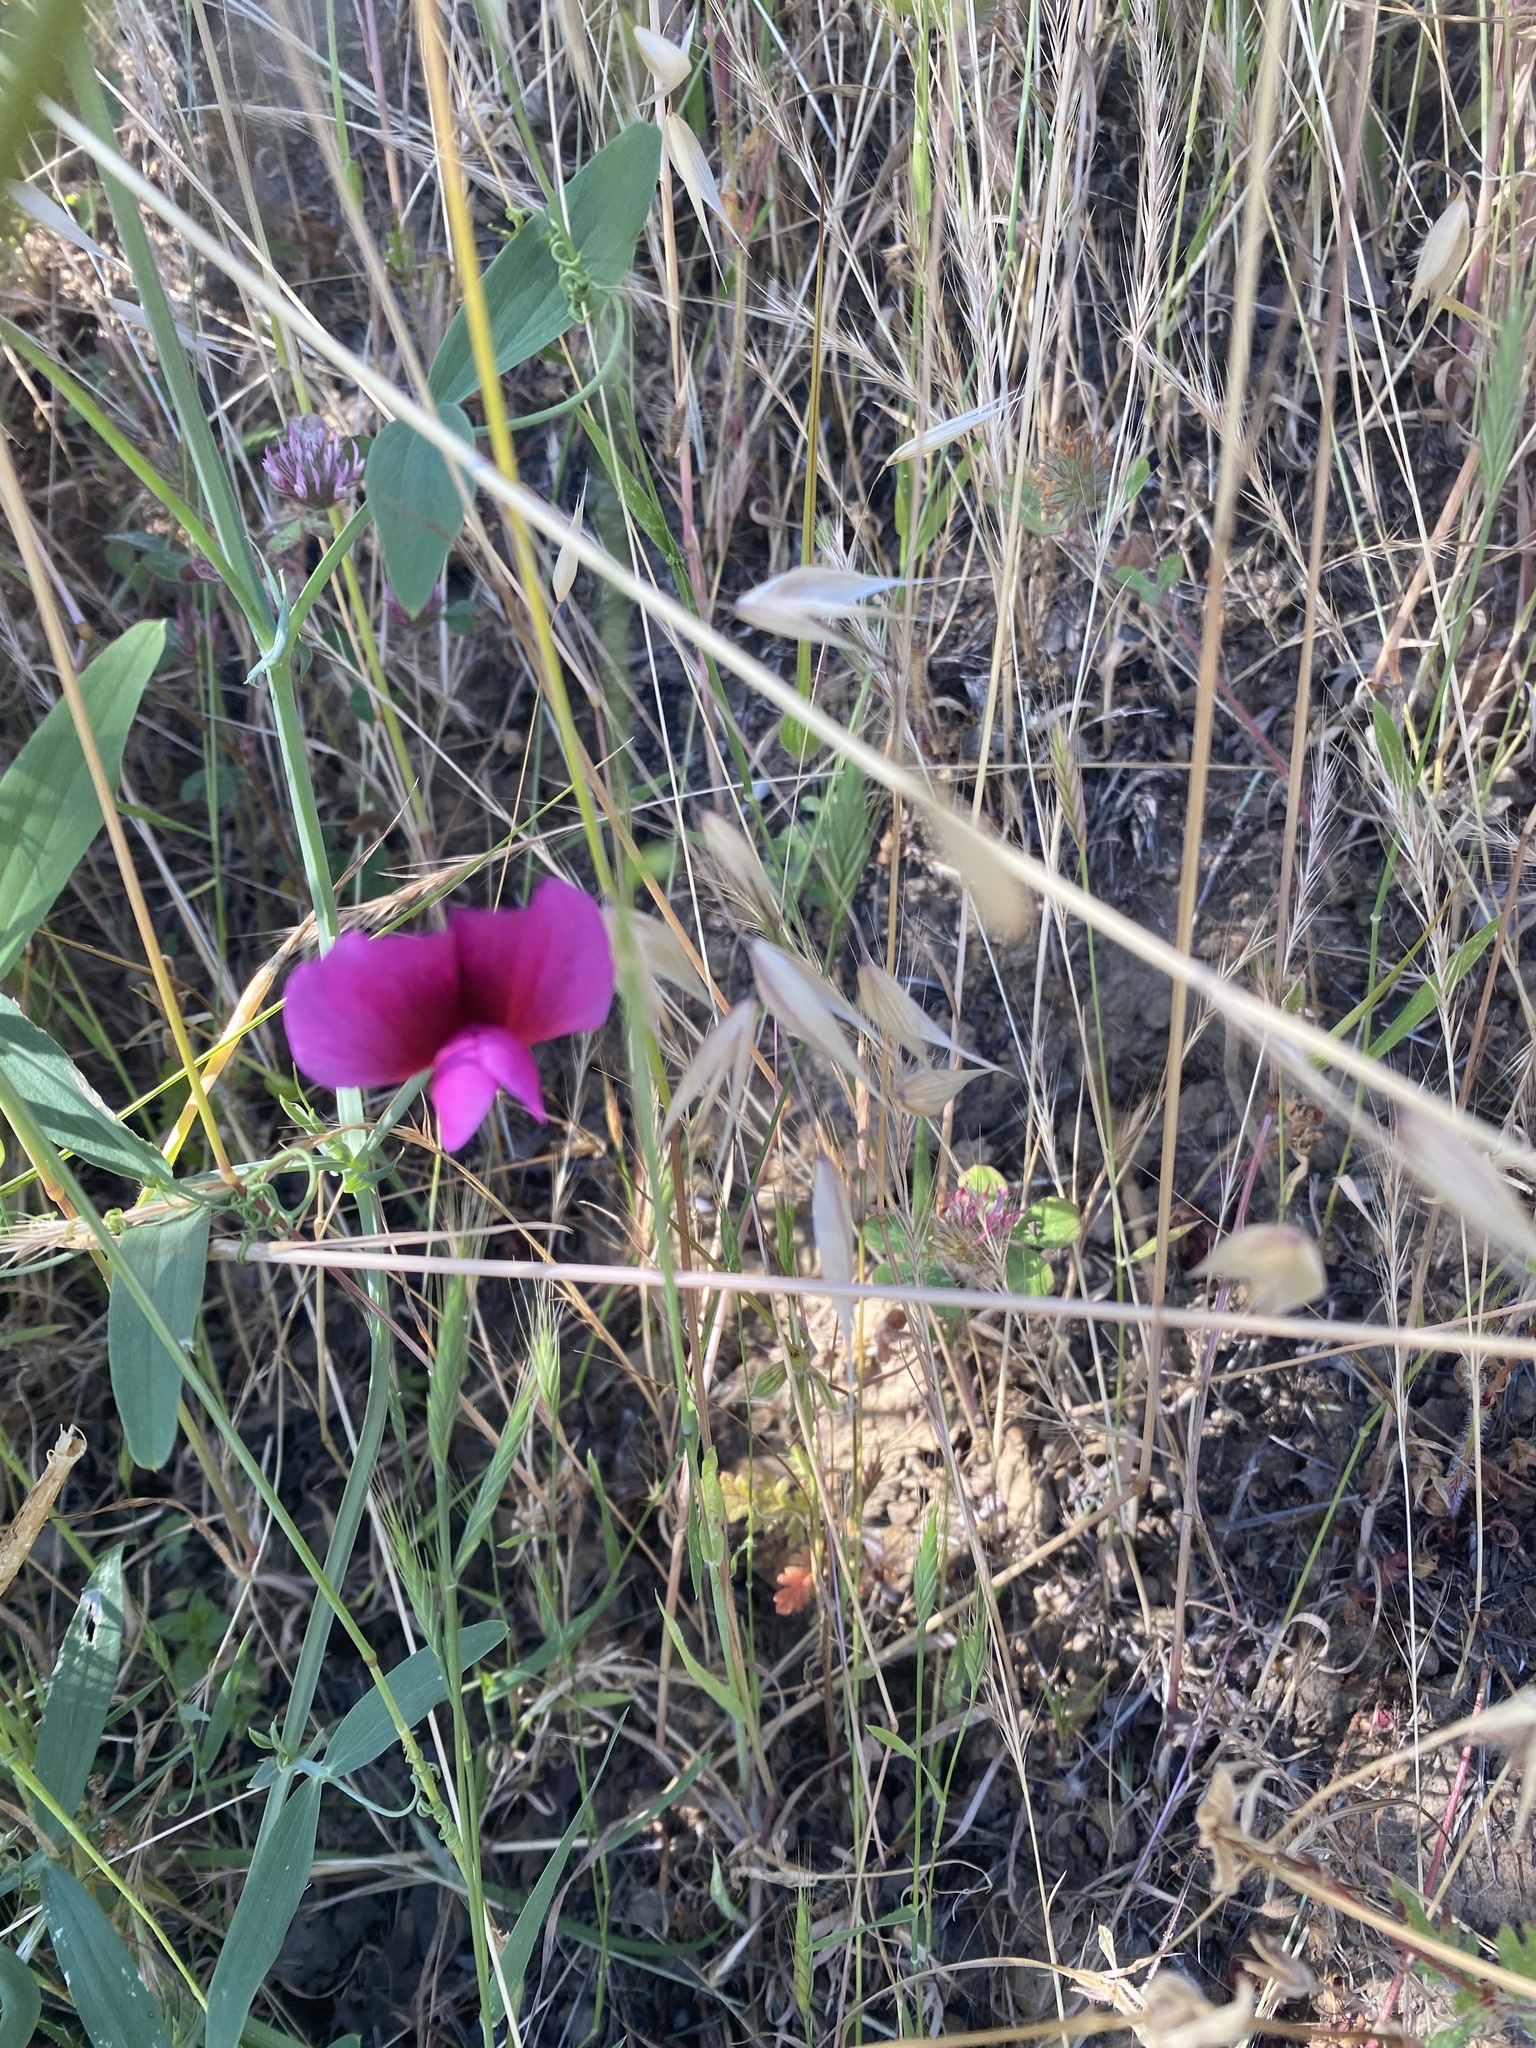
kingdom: Plantae
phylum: Tracheophyta
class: Magnoliopsida
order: Fabales
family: Fabaceae
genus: Lathyrus
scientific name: Lathyrus tingitanus
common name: Tangier pea
